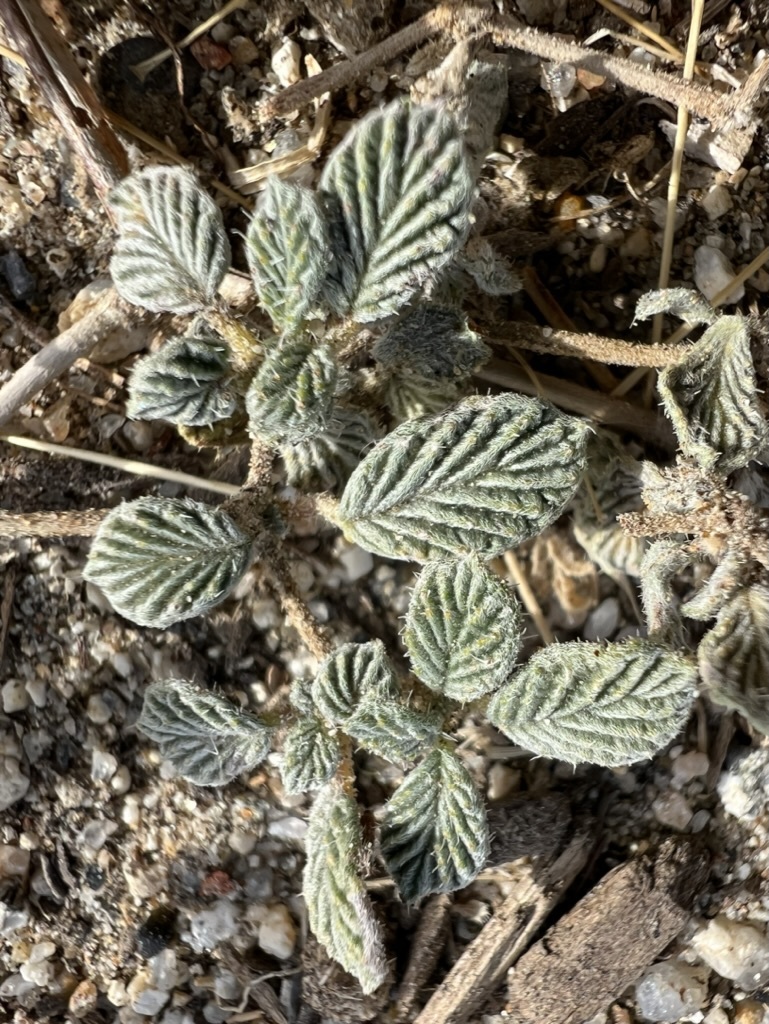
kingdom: Plantae
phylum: Tracheophyta
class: Magnoliopsida
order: Boraginales
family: Ehretiaceae
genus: Tiquilia
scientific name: Tiquilia plicata
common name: Fan-leaf tiquilia
